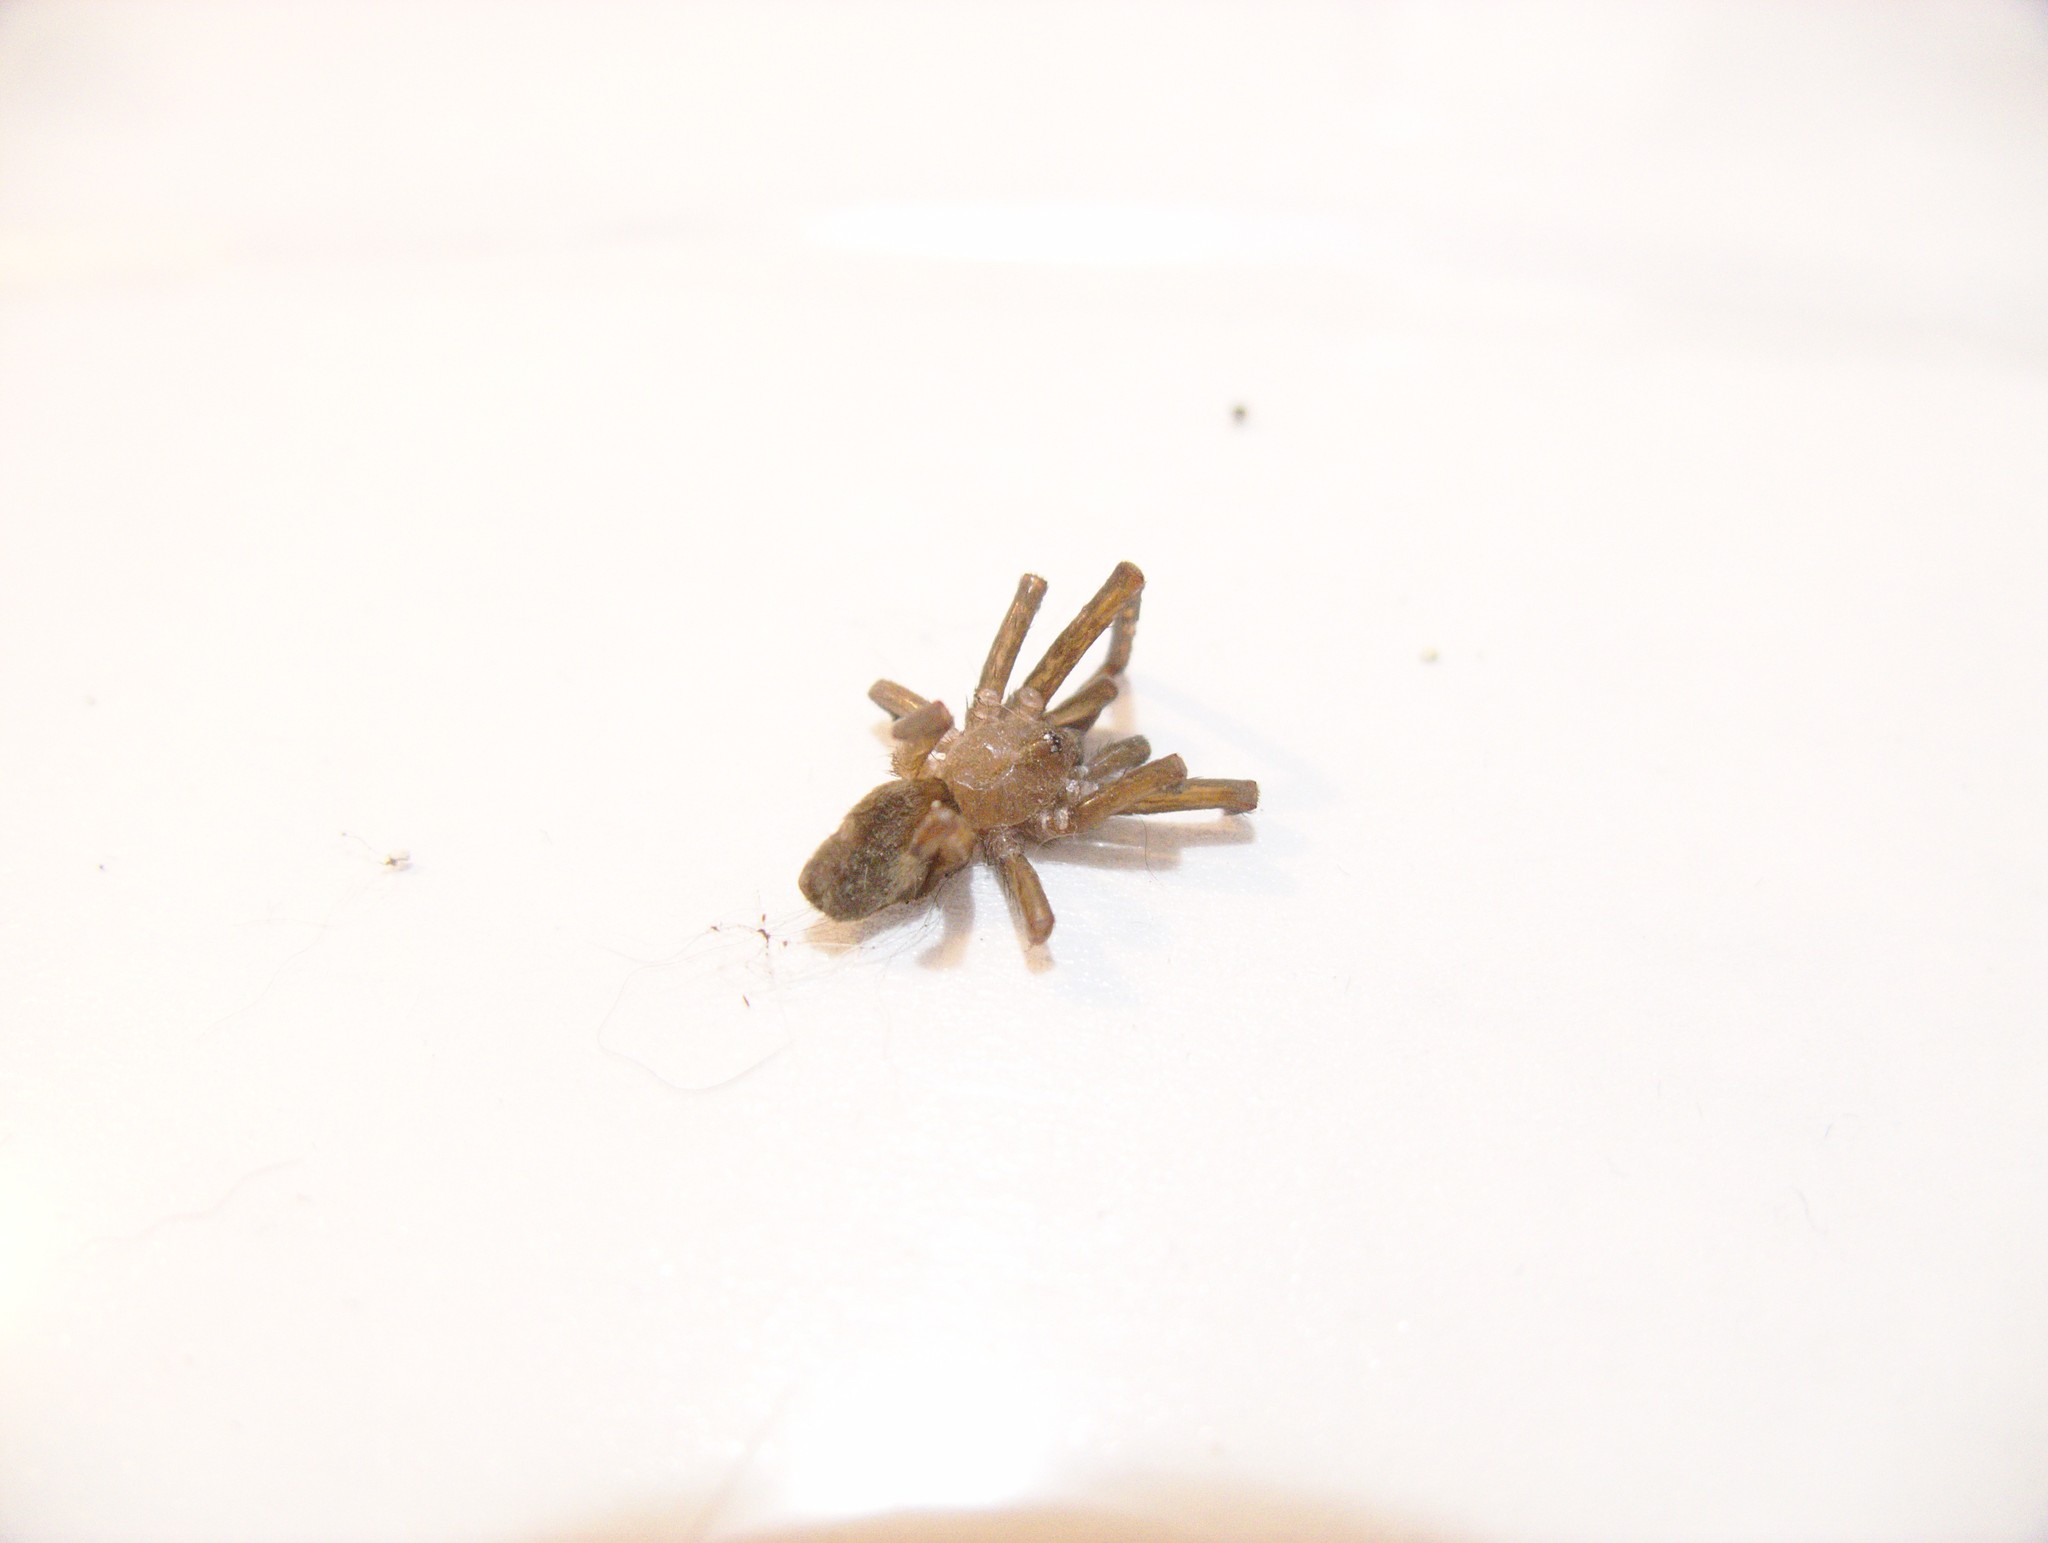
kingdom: Animalia
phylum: Arthropoda
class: Arachnida
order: Araneae
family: Filistatidae
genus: Kukulcania
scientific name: Kukulcania hibernalis
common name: Crevice weaver
